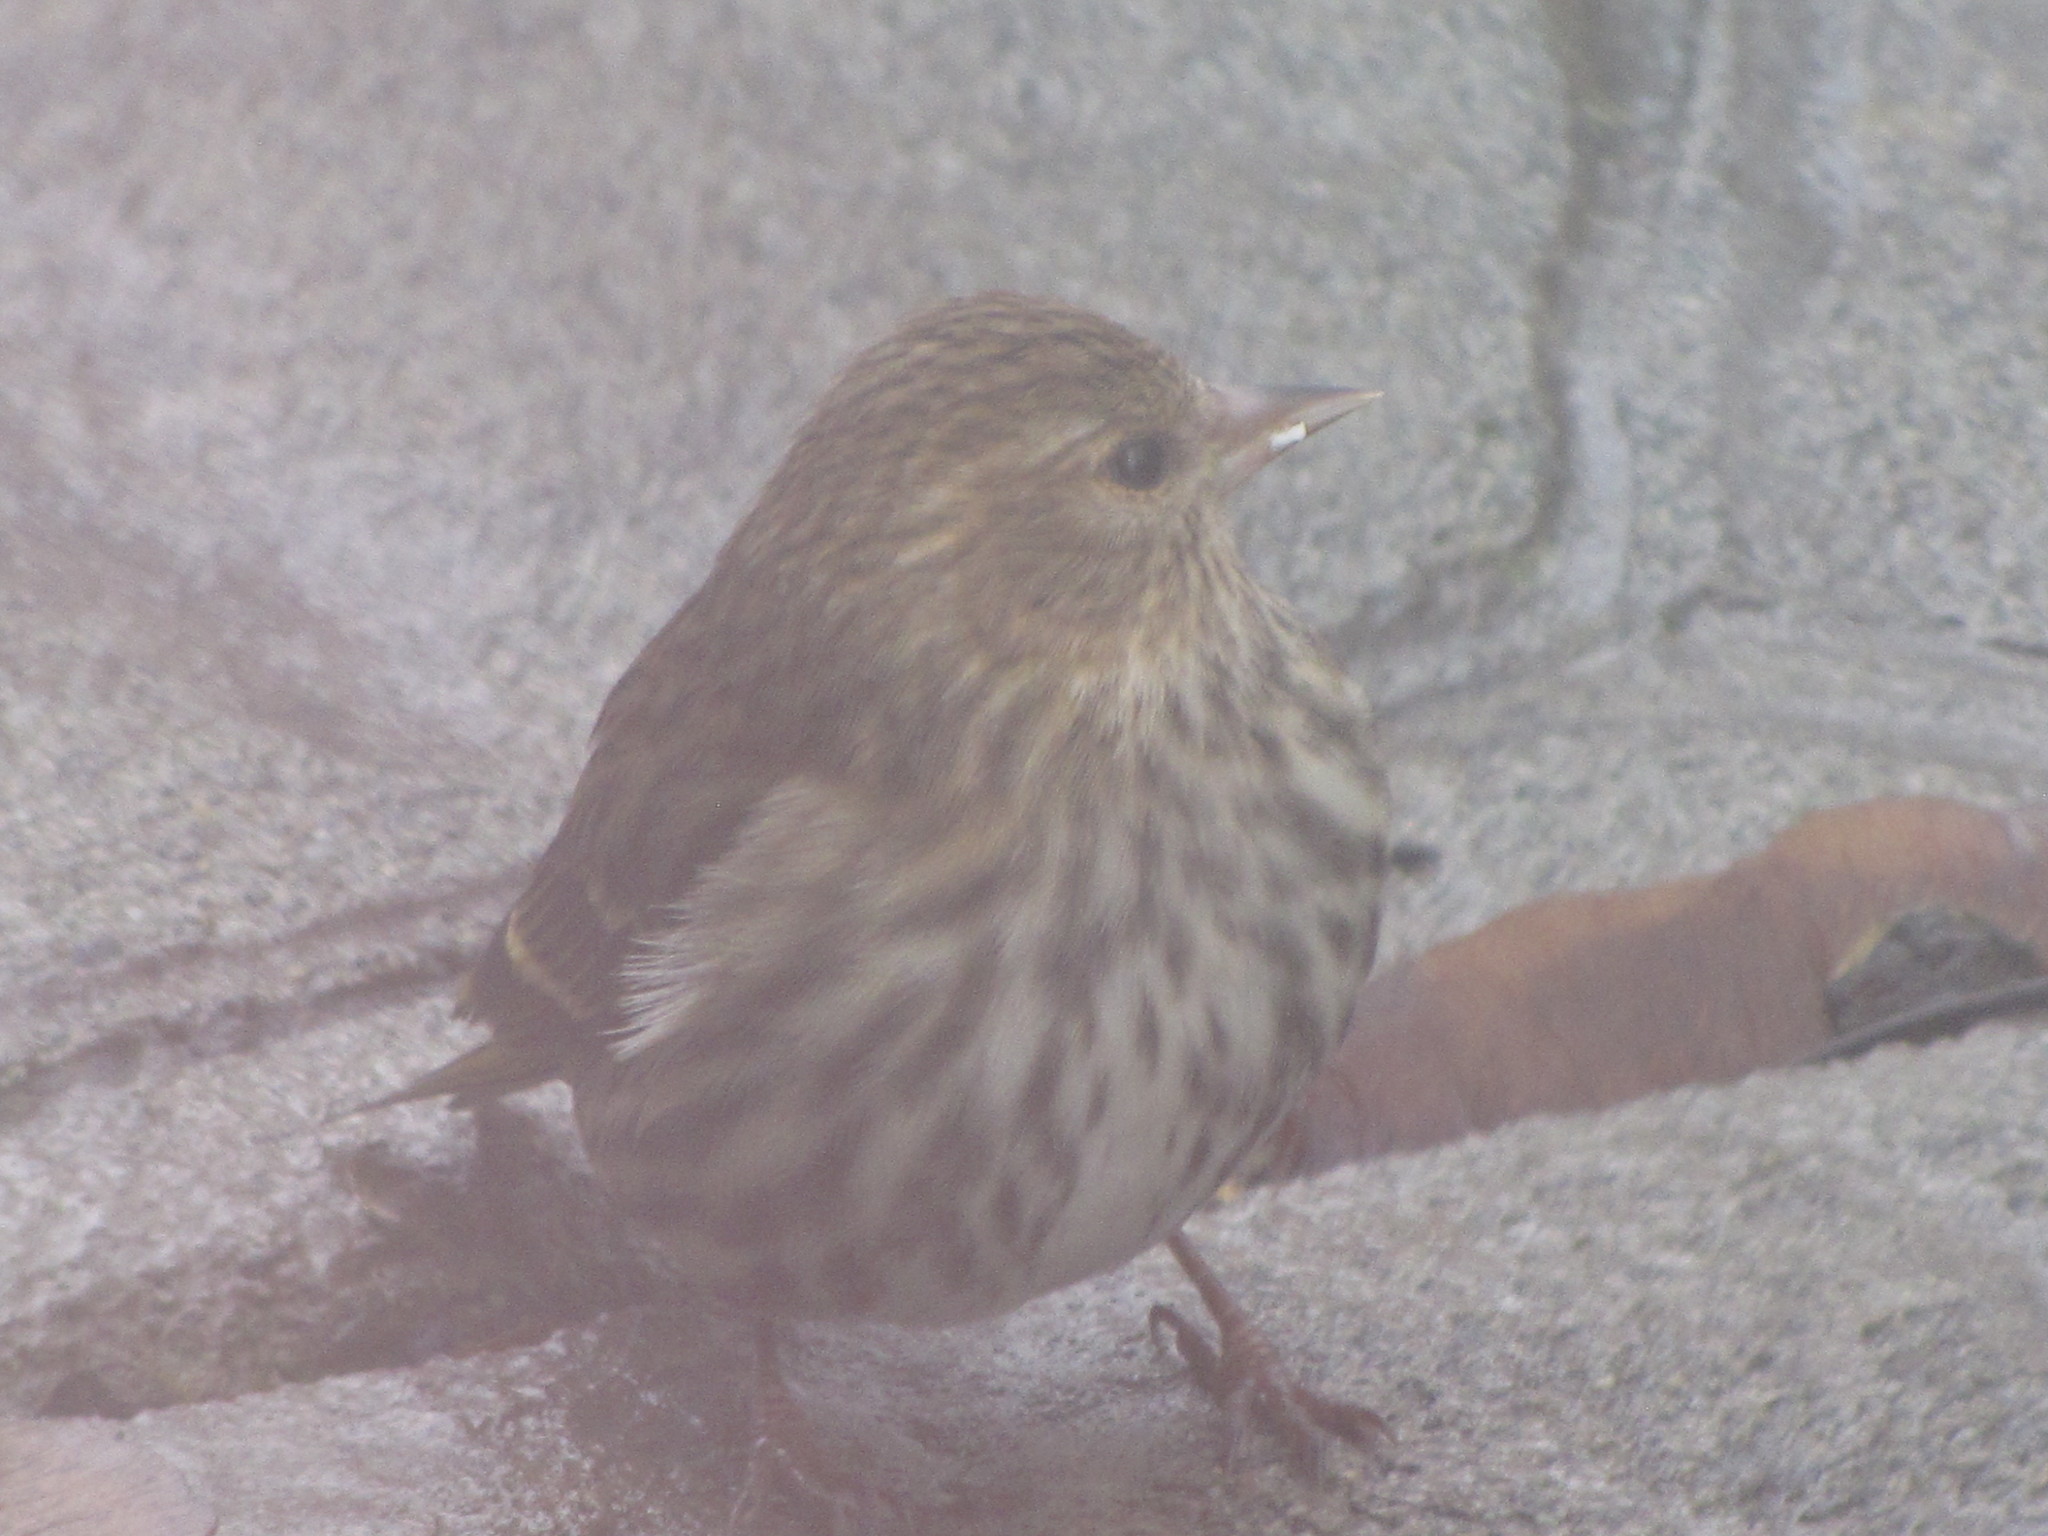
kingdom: Animalia
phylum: Chordata
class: Aves
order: Passeriformes
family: Fringillidae
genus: Spinus
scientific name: Spinus pinus
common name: Pine siskin
